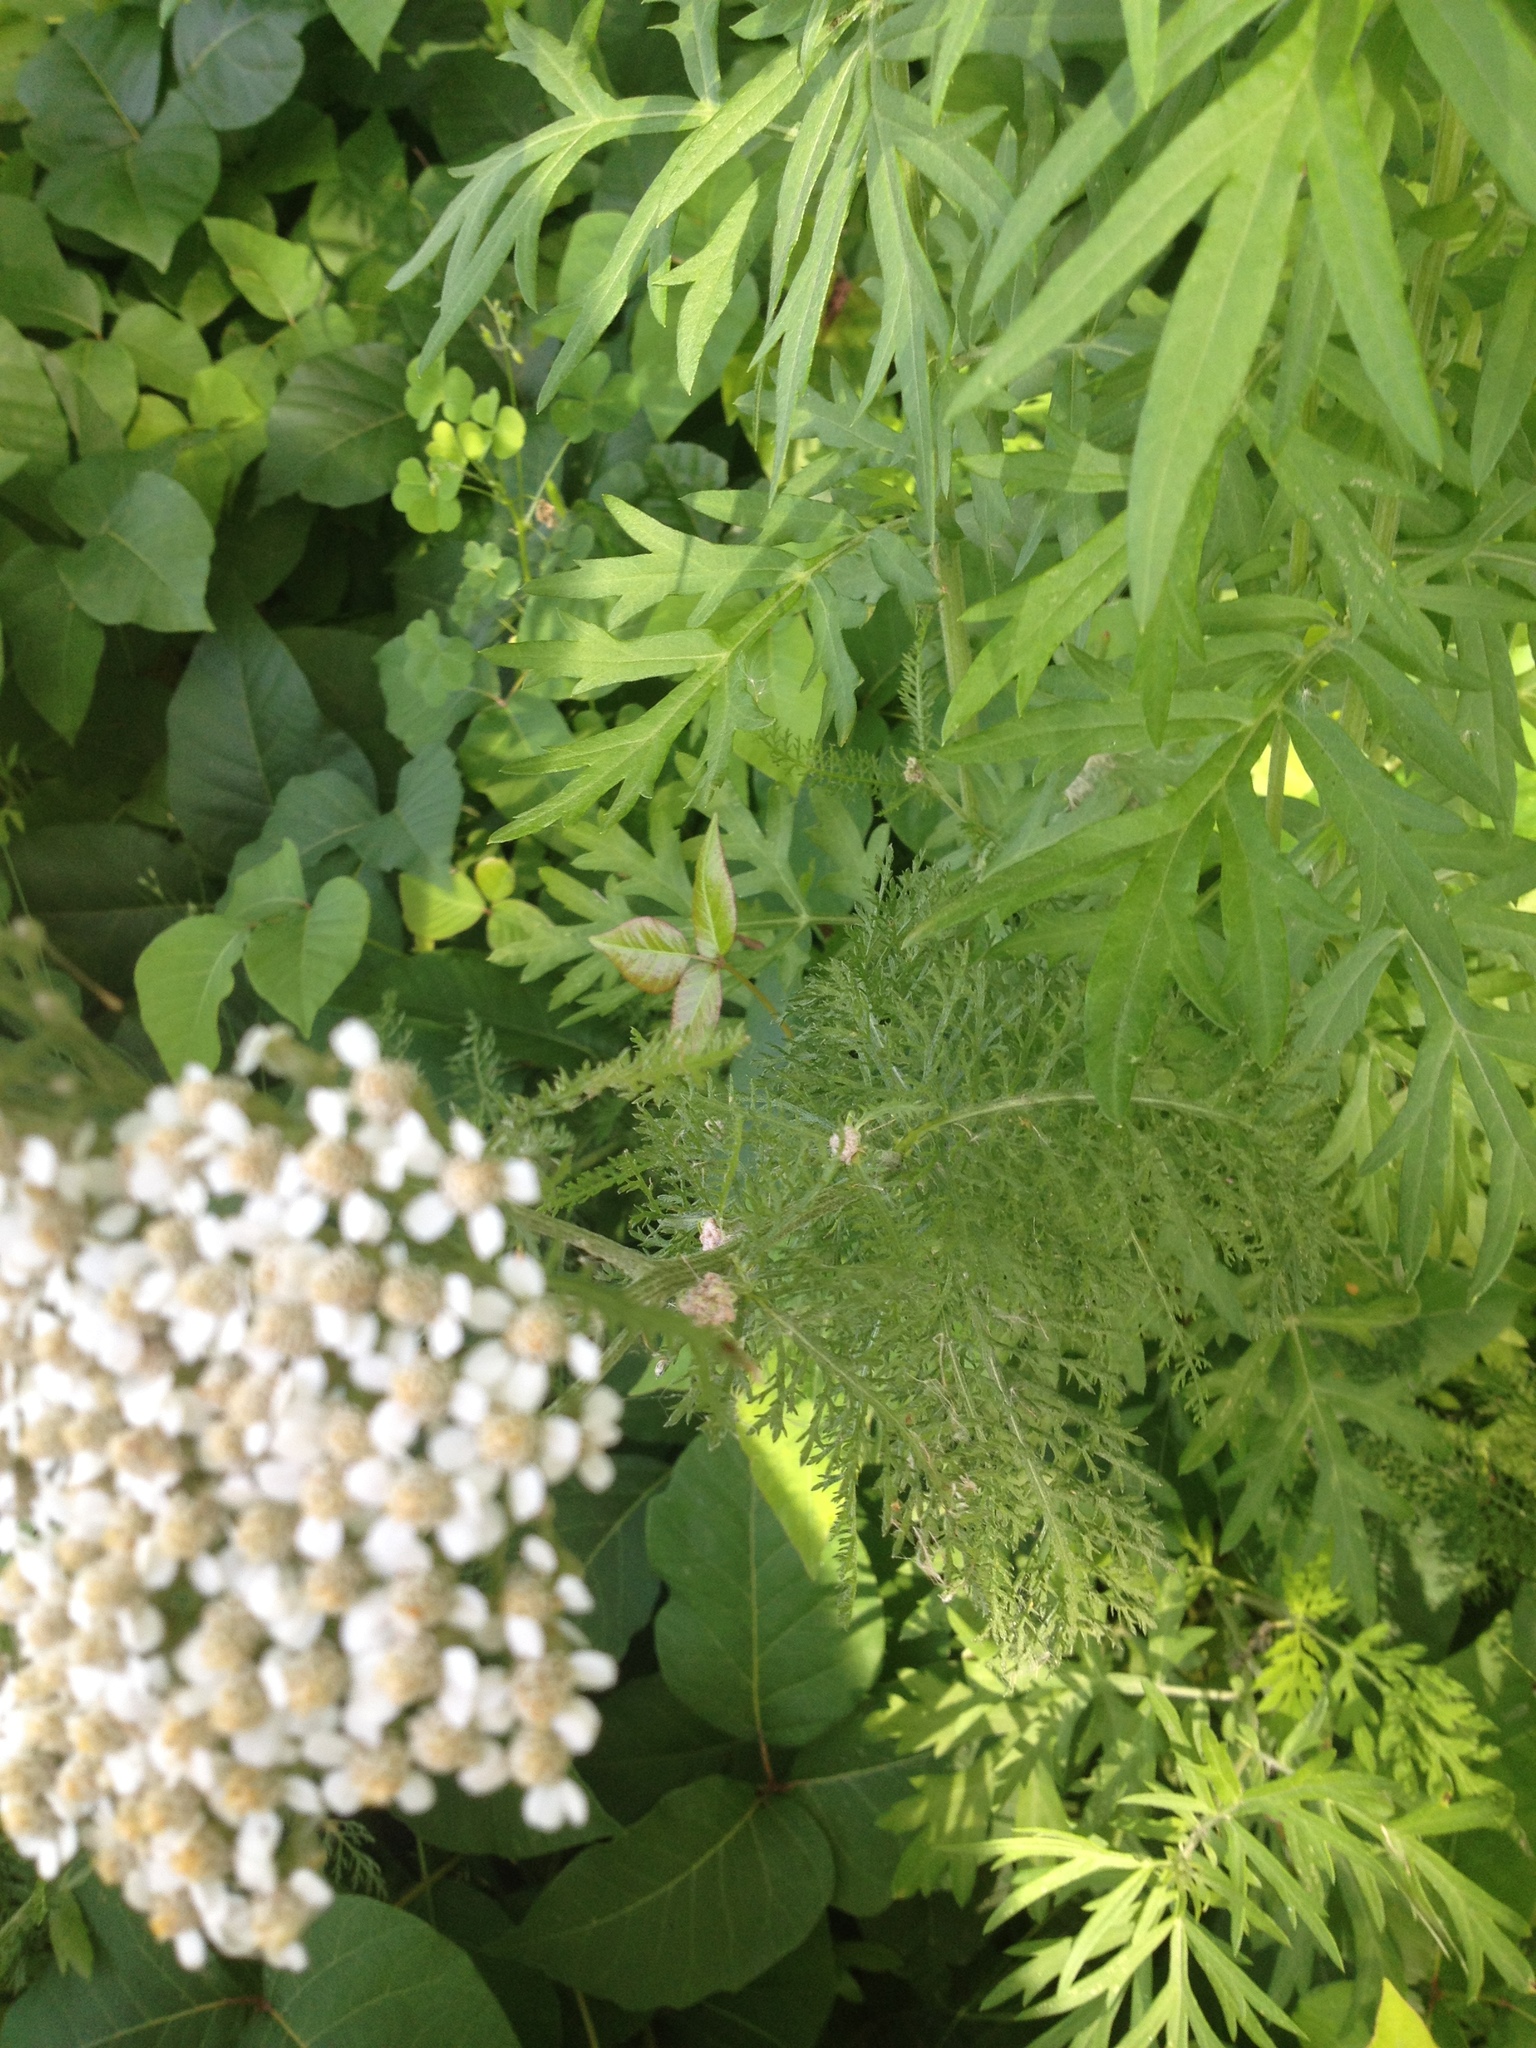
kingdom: Plantae
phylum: Tracheophyta
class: Magnoliopsida
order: Asterales
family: Asteraceae
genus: Achillea
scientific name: Achillea millefolium
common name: Yarrow
